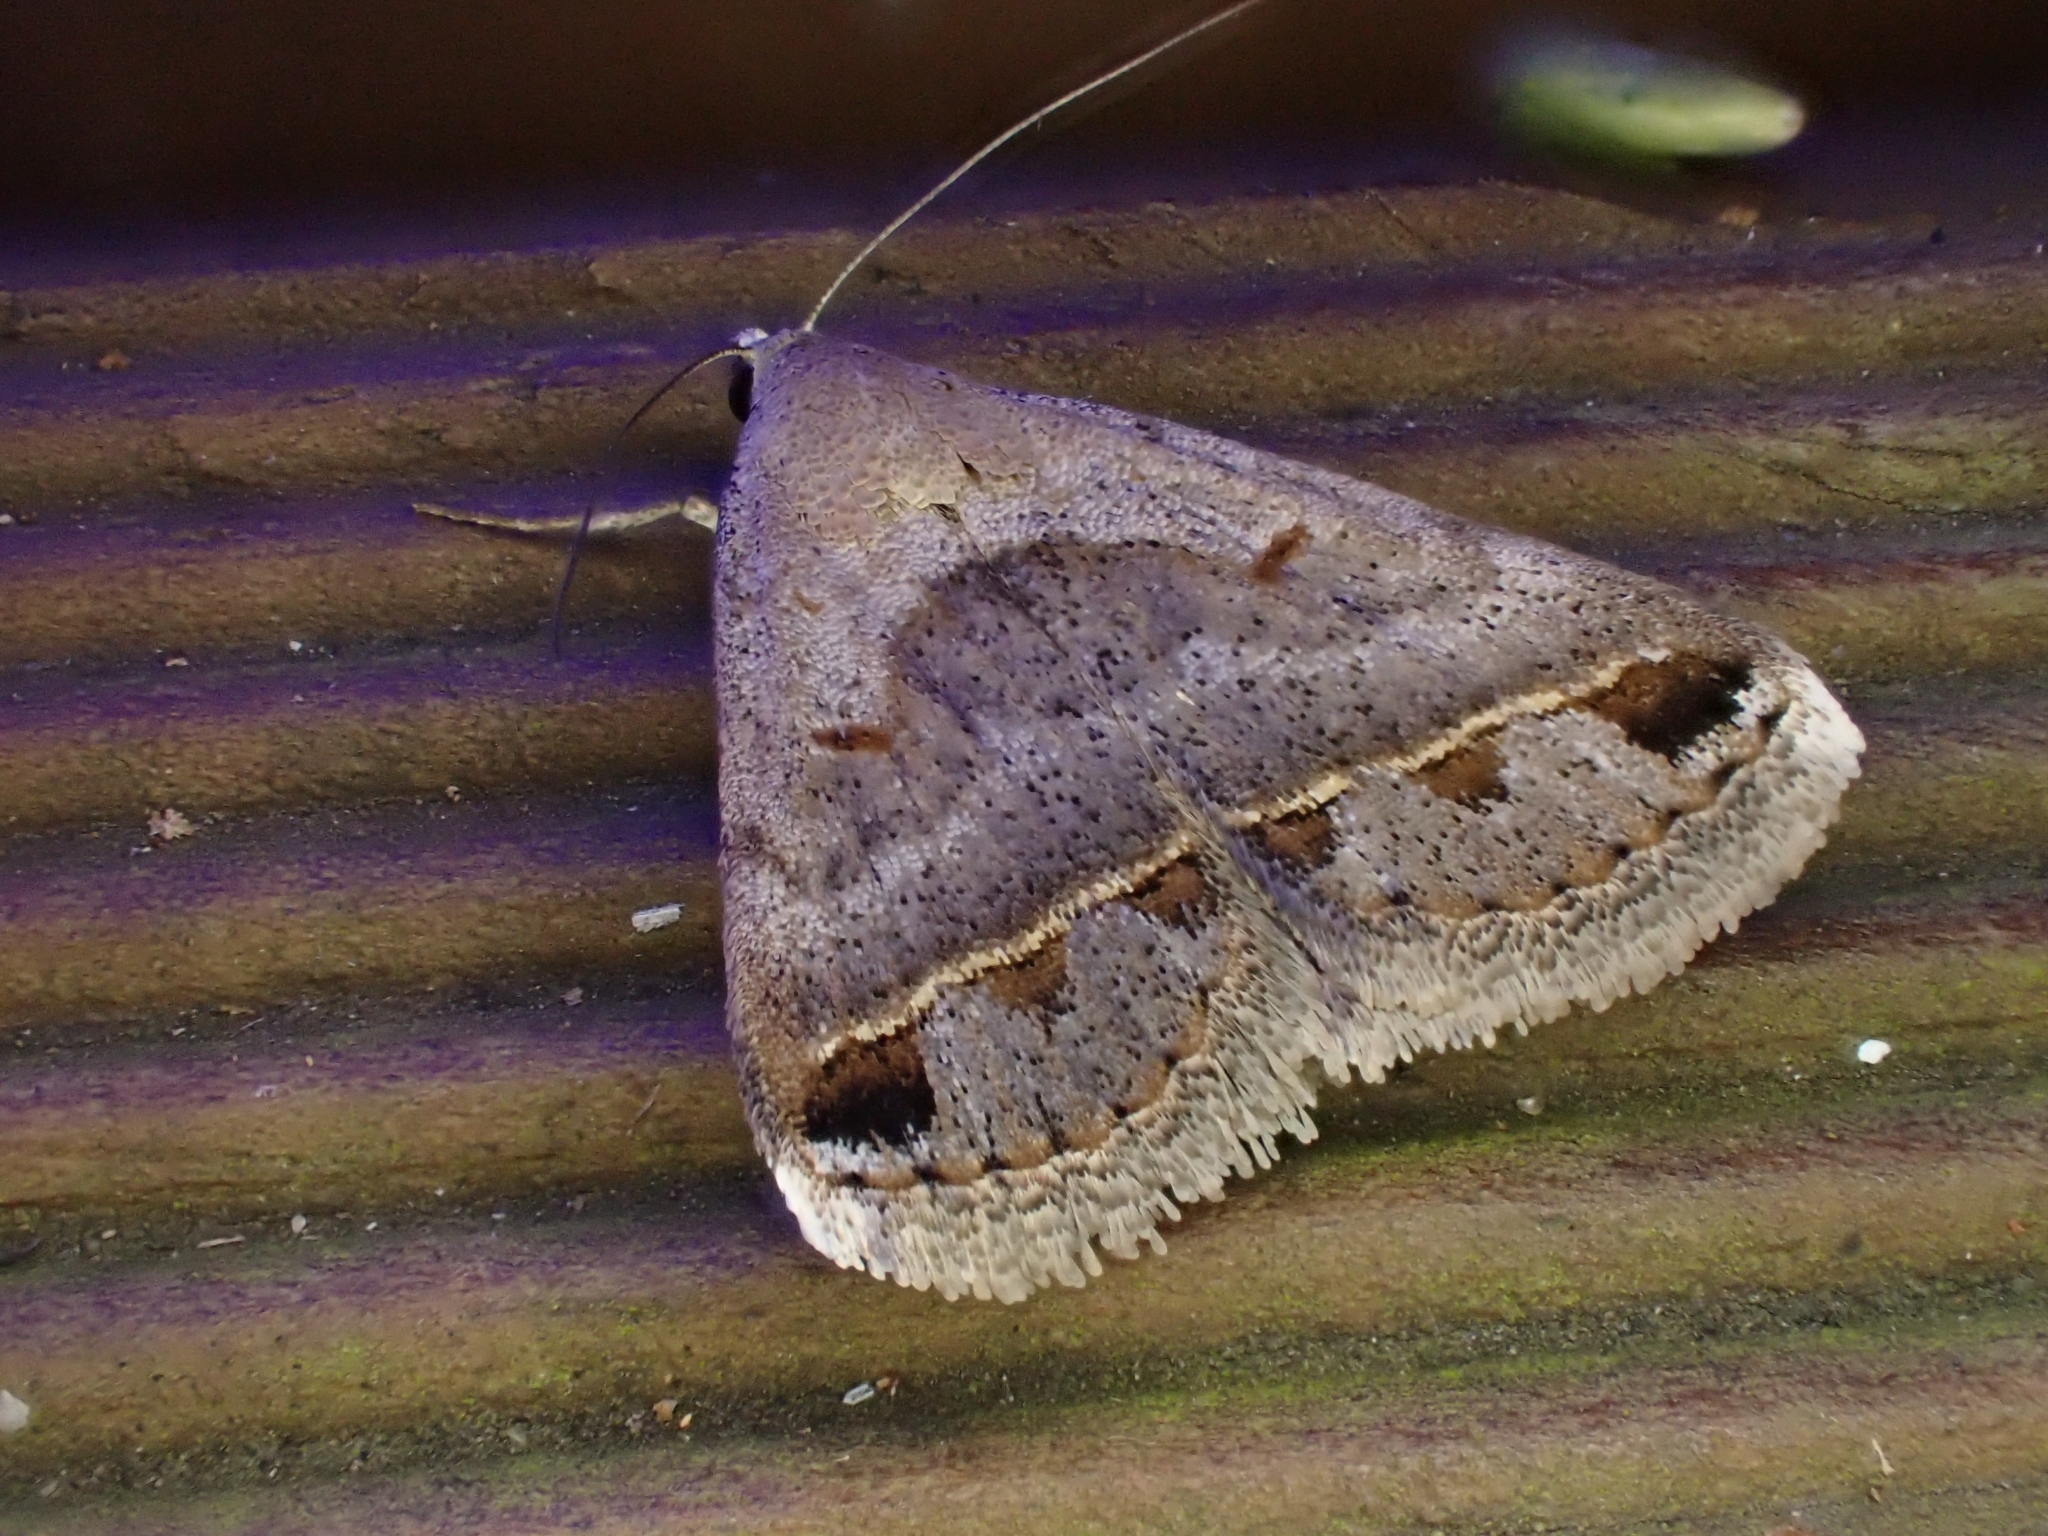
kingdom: Animalia
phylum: Arthropoda
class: Insecta
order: Lepidoptera
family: Erebidae
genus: Acantholipes
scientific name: Acantholipes trimeni
